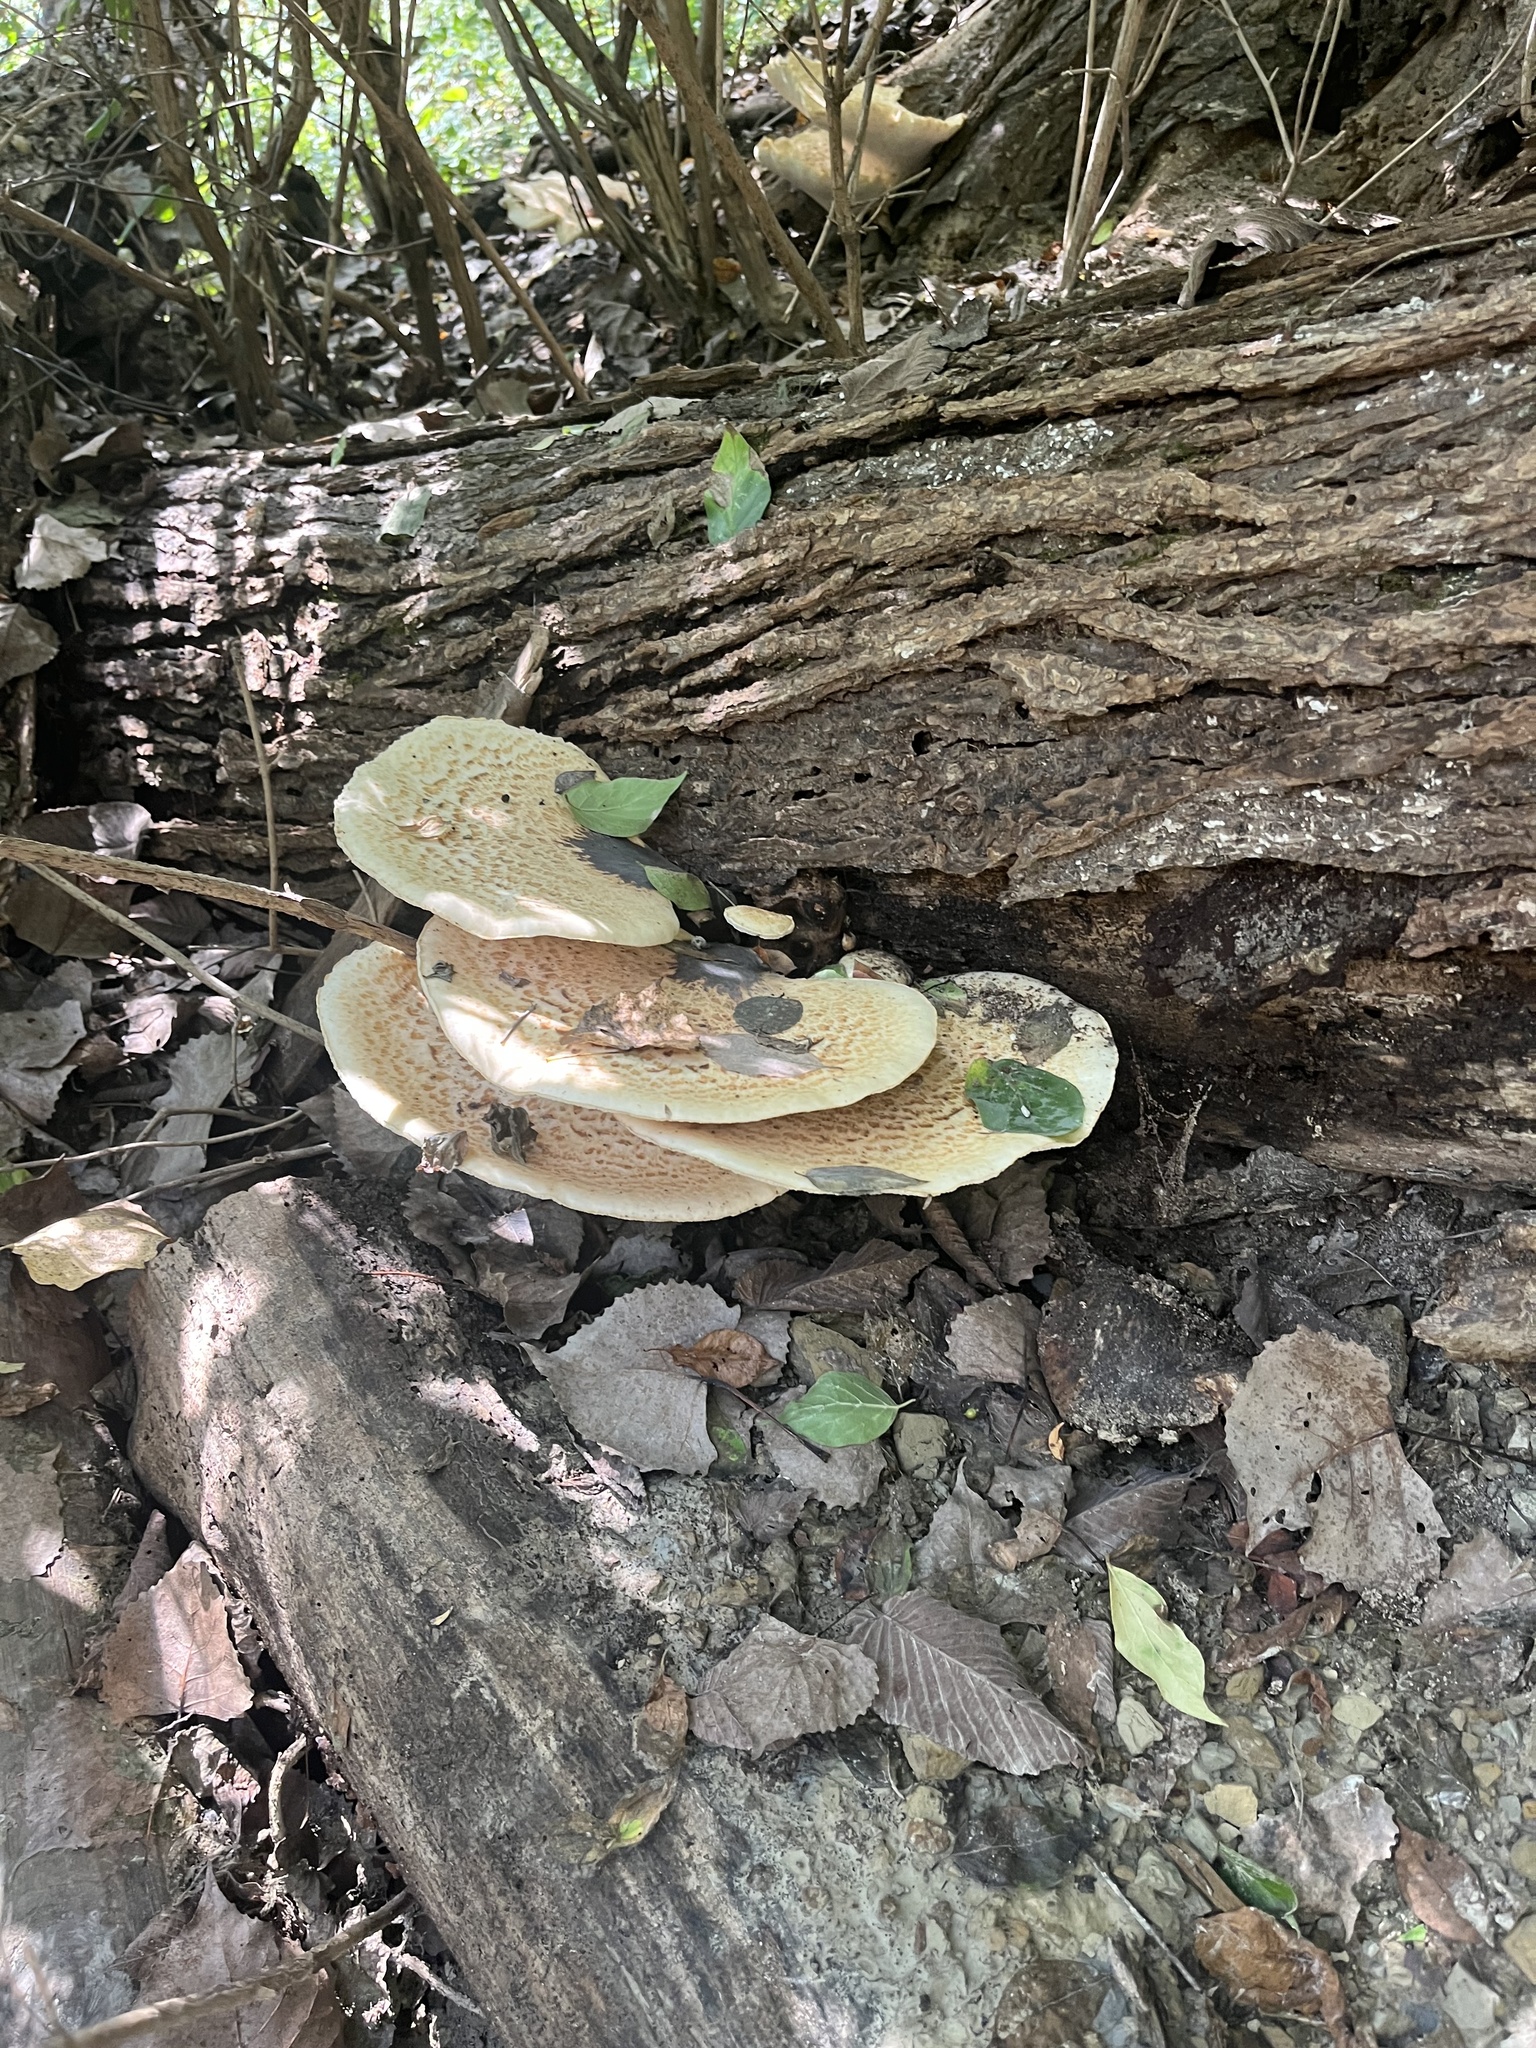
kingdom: Fungi
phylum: Basidiomycota
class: Agaricomycetes
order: Polyporales
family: Polyporaceae
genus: Cerioporus
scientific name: Cerioporus squamosus
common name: Dryad's saddle
